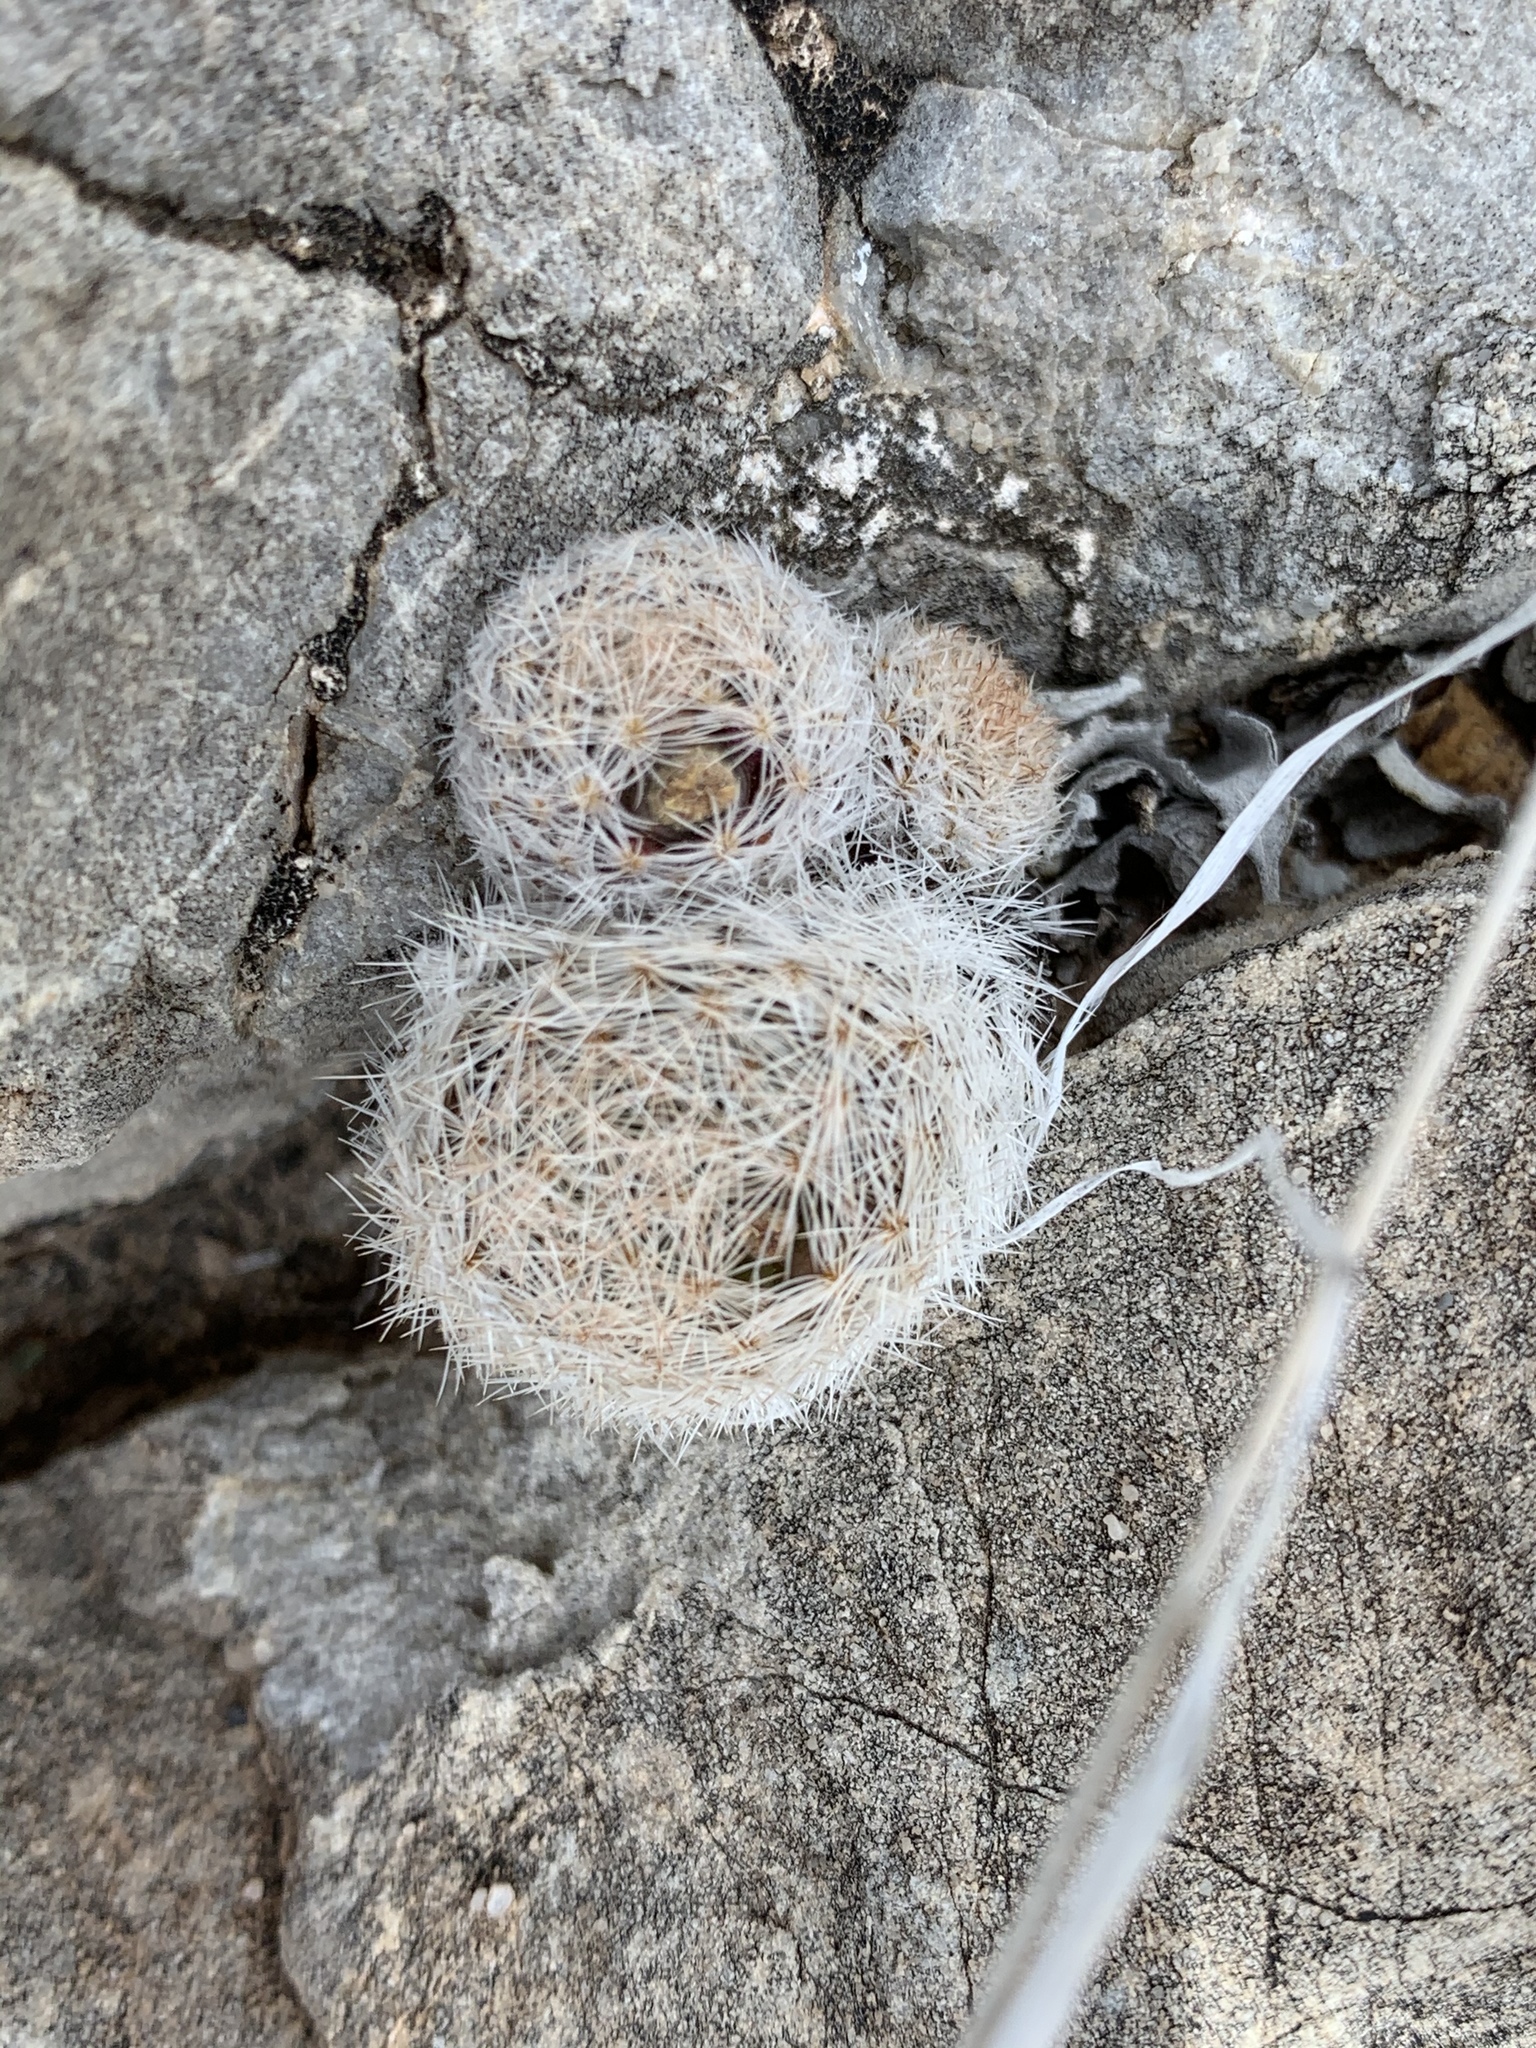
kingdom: Plantae
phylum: Tracheophyta
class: Magnoliopsida
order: Caryophyllales
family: Cactaceae
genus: Mammillaria
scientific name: Mammillaria lasiacantha
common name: Lace-spine nipple cactus
